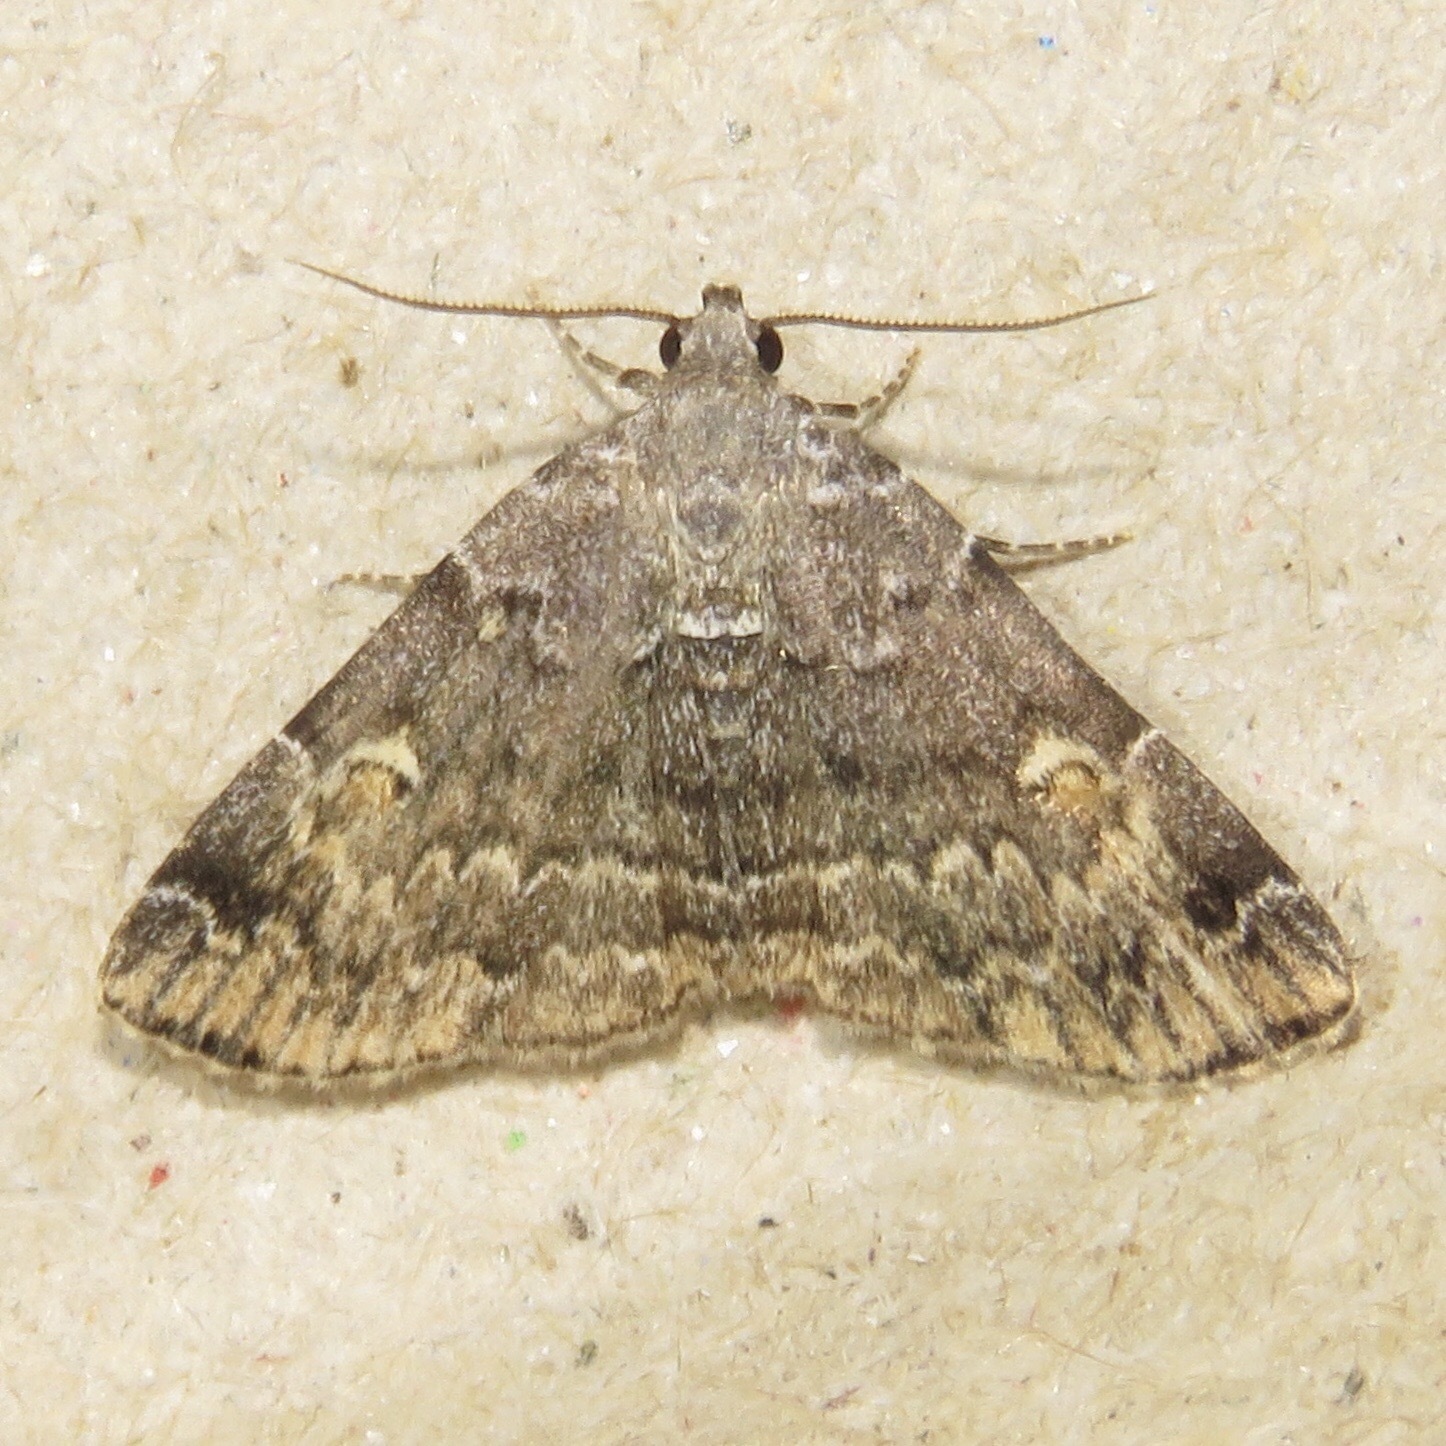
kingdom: Animalia
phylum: Arthropoda
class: Insecta
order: Lepidoptera
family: Erebidae
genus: Idia
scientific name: Idia americalis
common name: American idia moth
